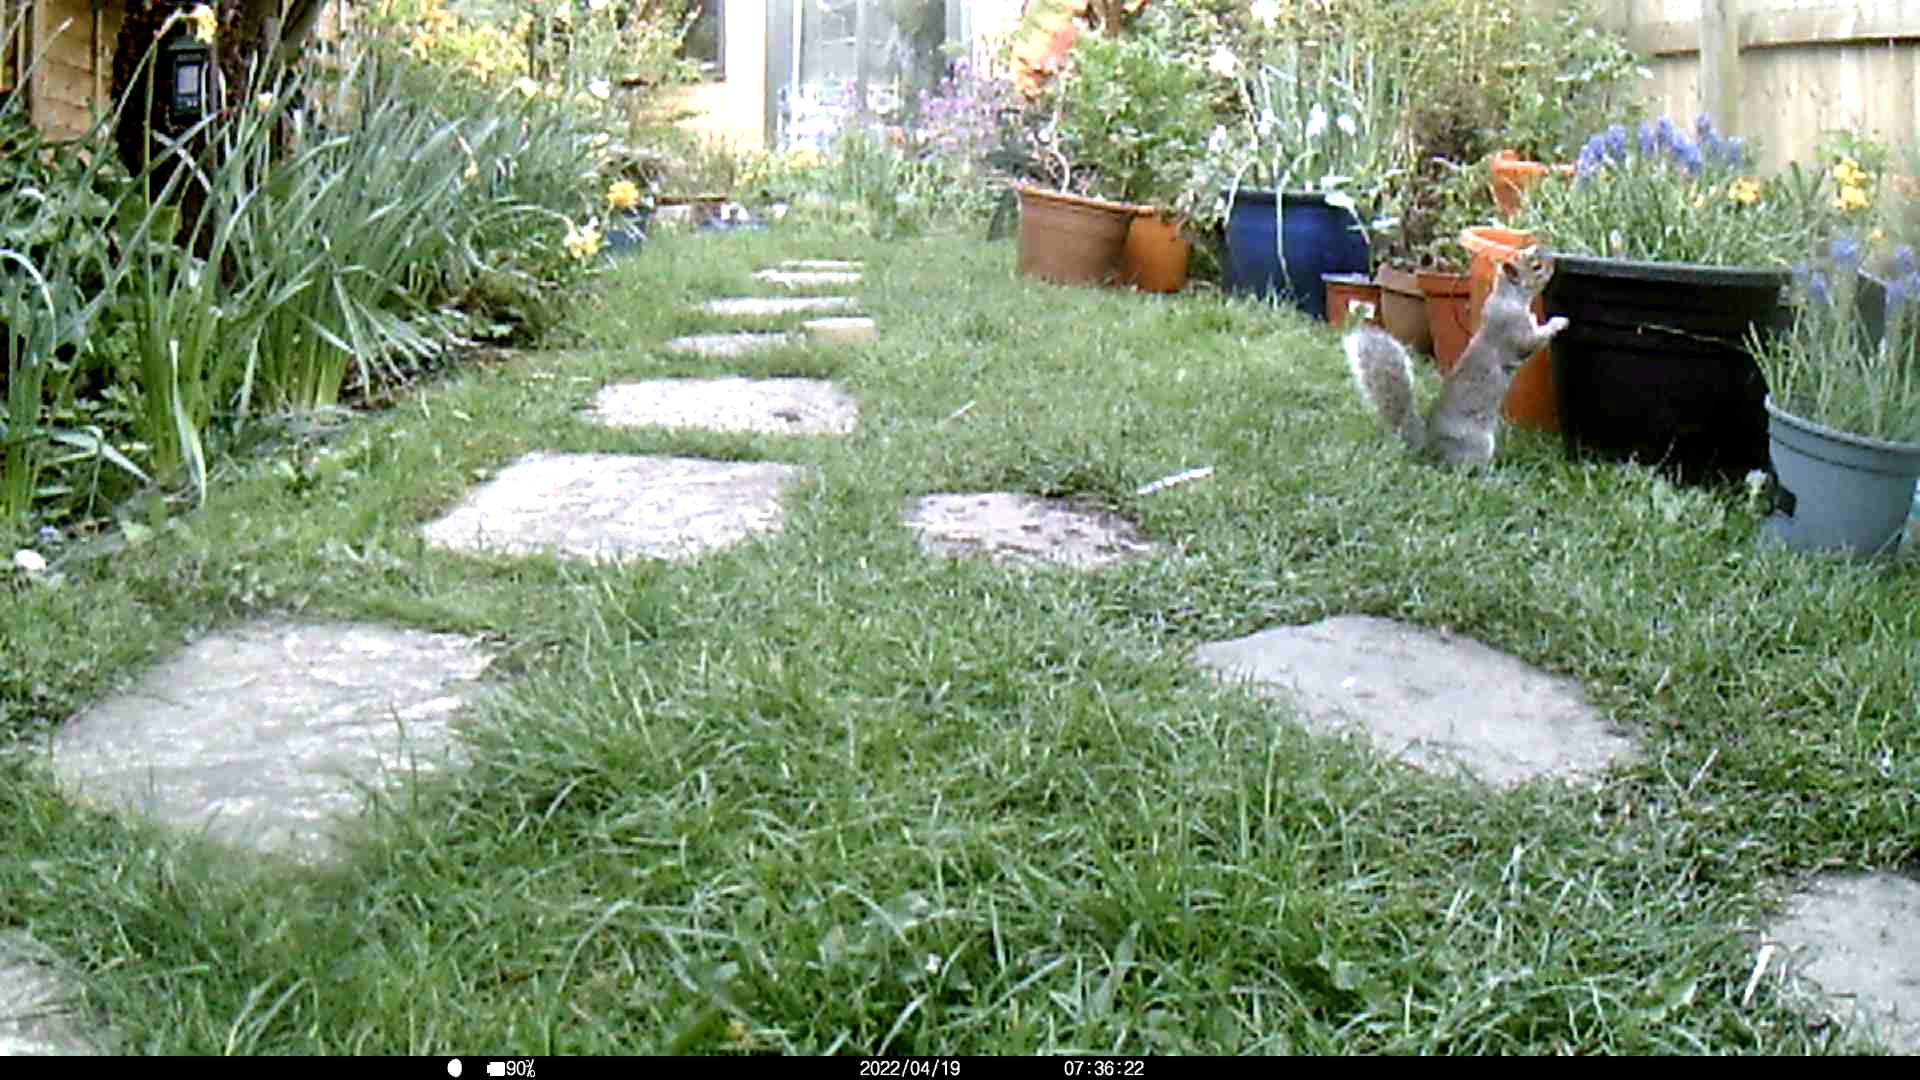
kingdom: Animalia
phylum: Chordata
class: Mammalia
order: Rodentia
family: Sciuridae
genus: Sciurus
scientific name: Sciurus carolinensis
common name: Eastern gray squirrel
